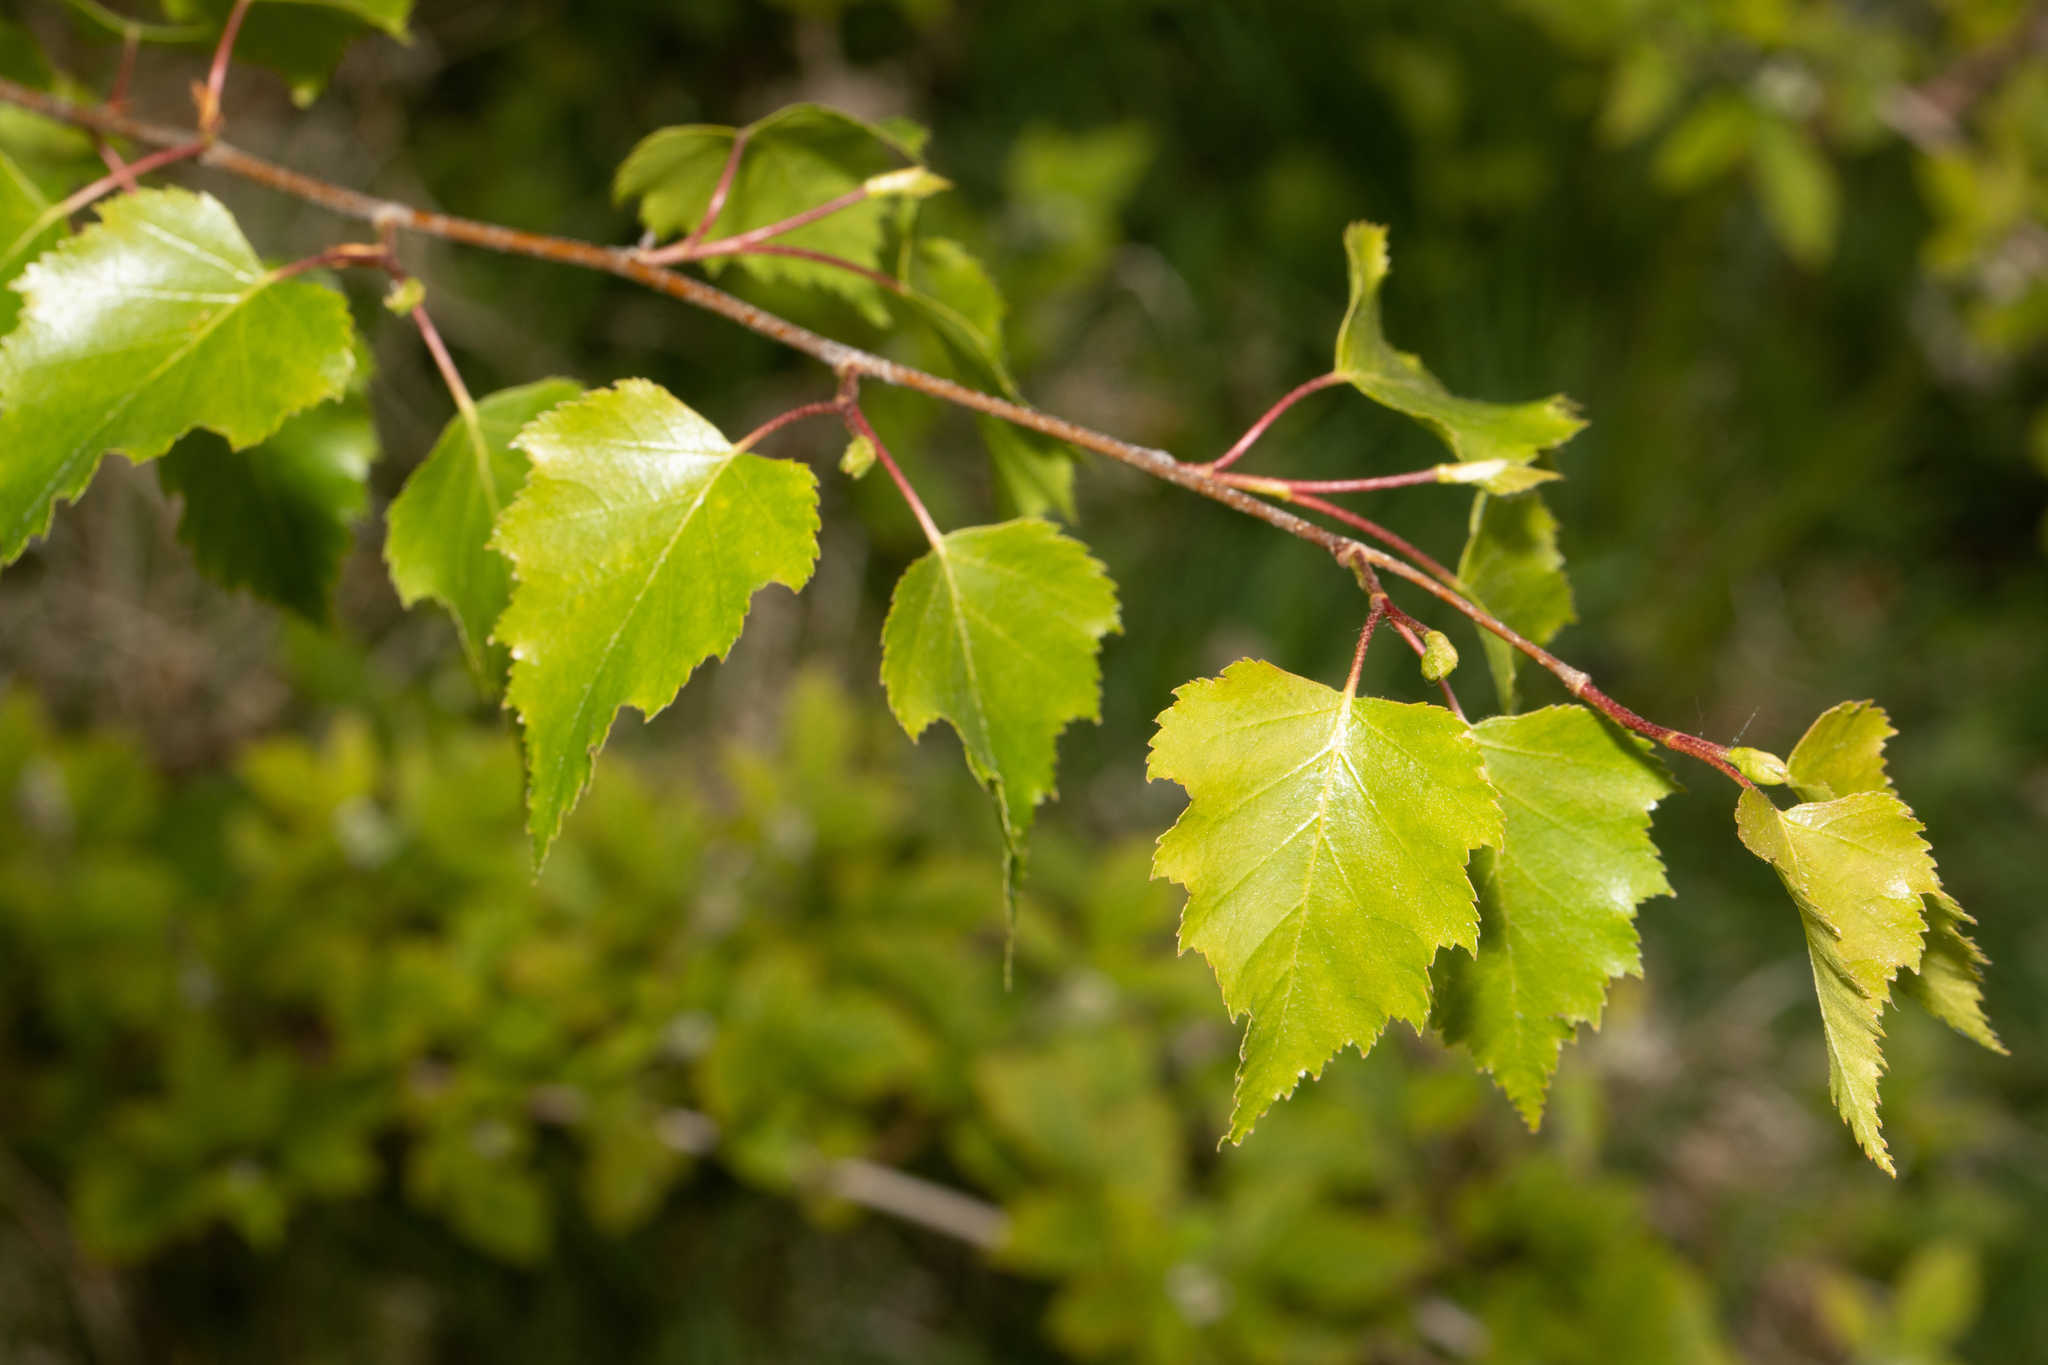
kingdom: Plantae
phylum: Tracheophyta
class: Magnoliopsida
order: Fagales
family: Betulaceae
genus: Betula
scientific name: Betula pendula
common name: Silver birch
